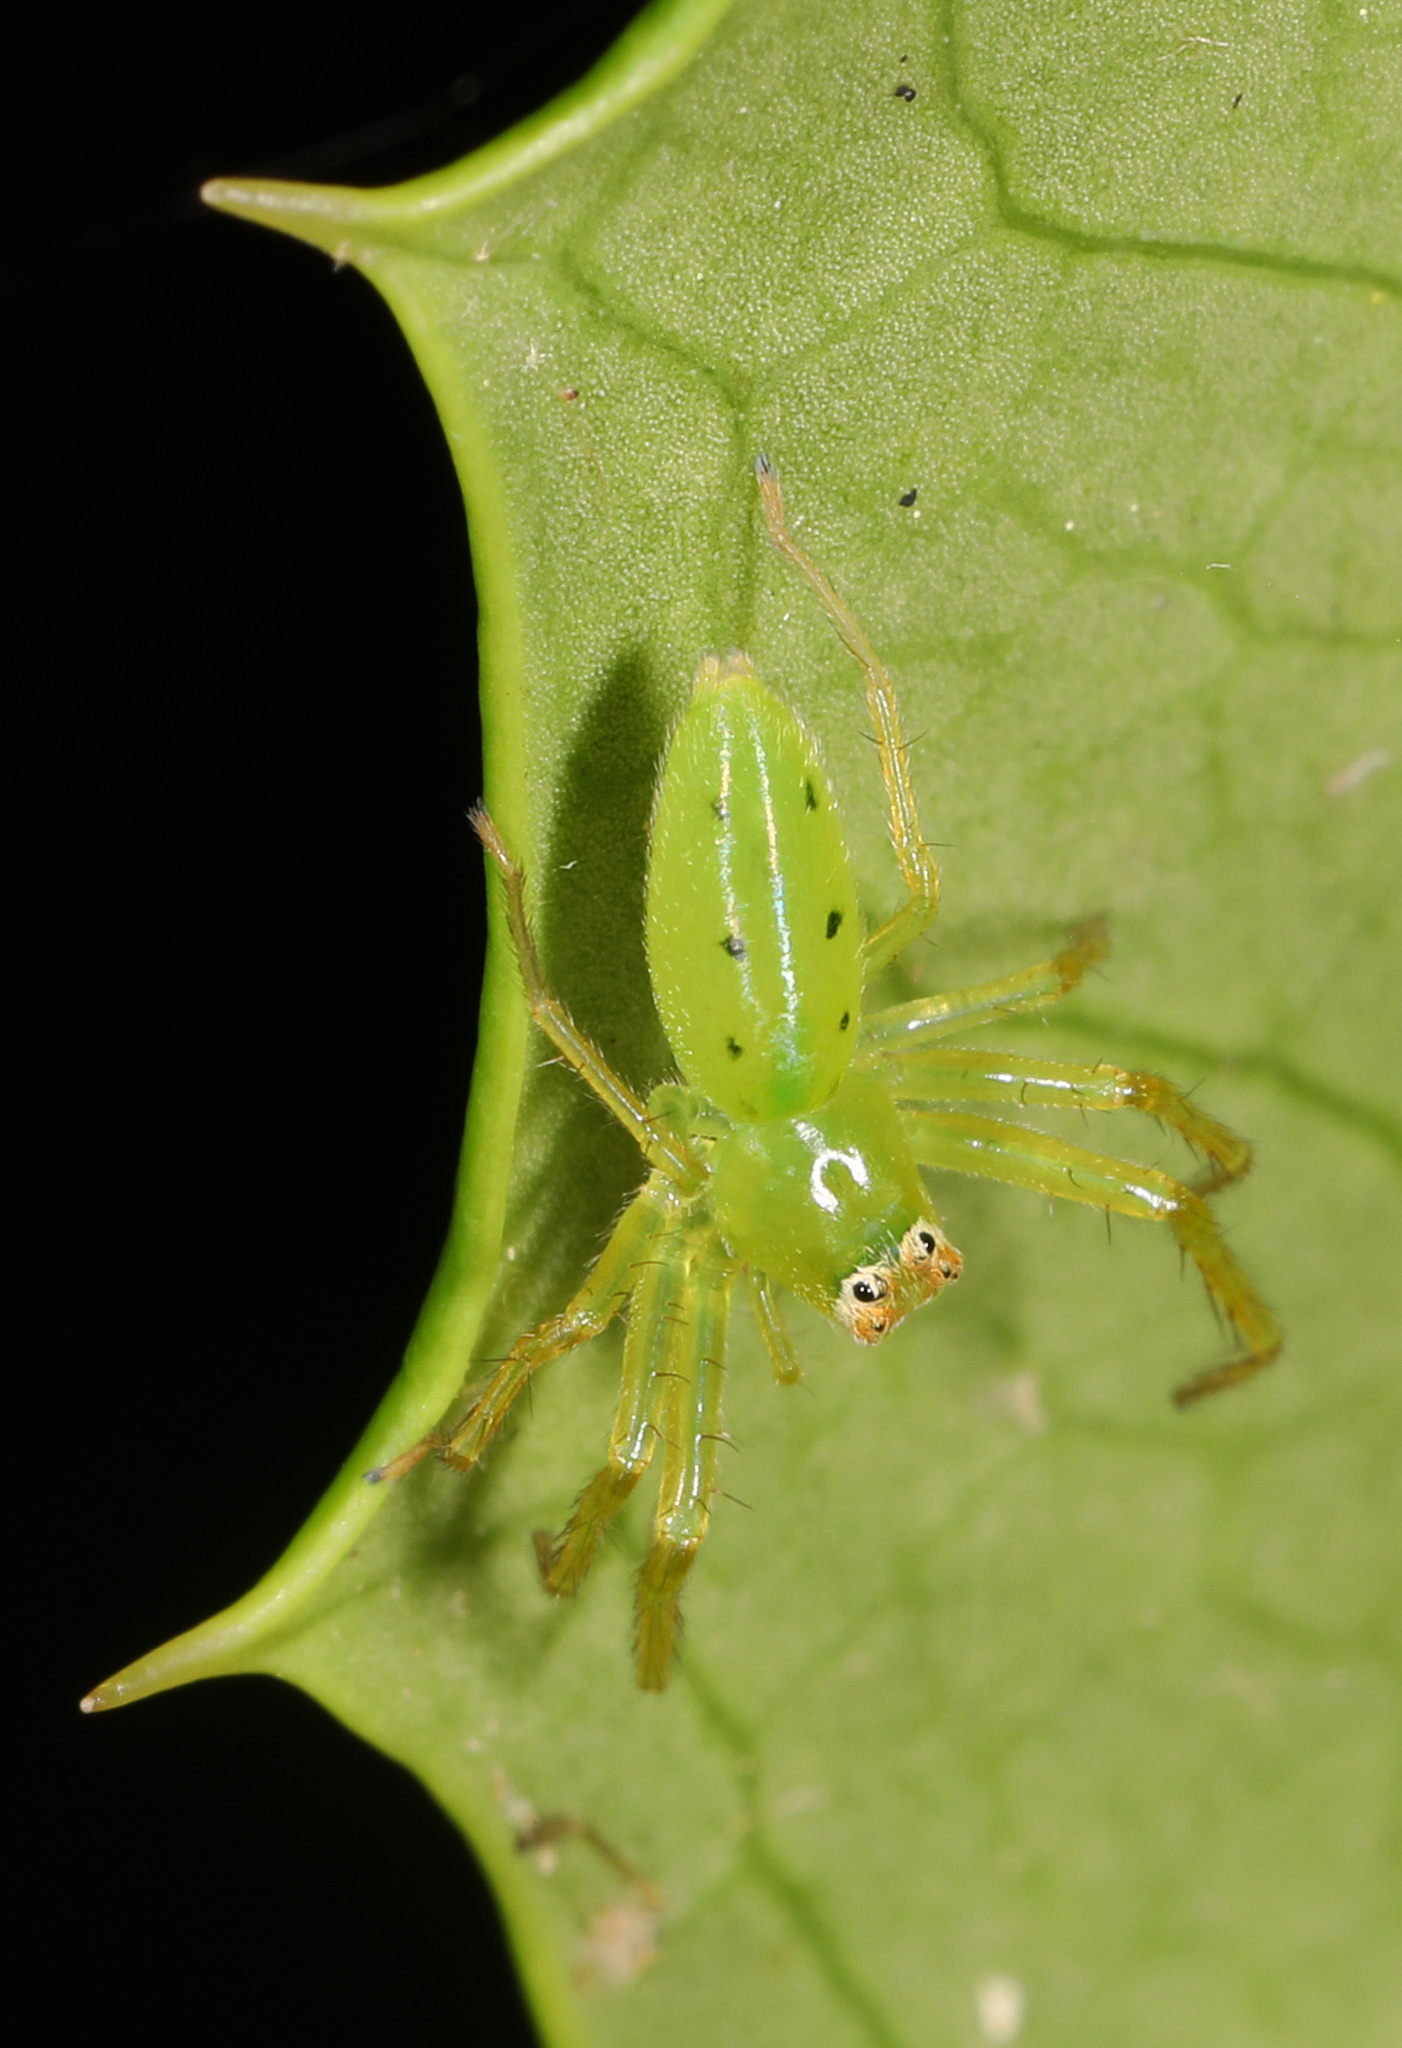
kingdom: Animalia
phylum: Arthropoda
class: Arachnida
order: Araneae
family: Salticidae
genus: Lyssomanes
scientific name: Lyssomanes viridis
